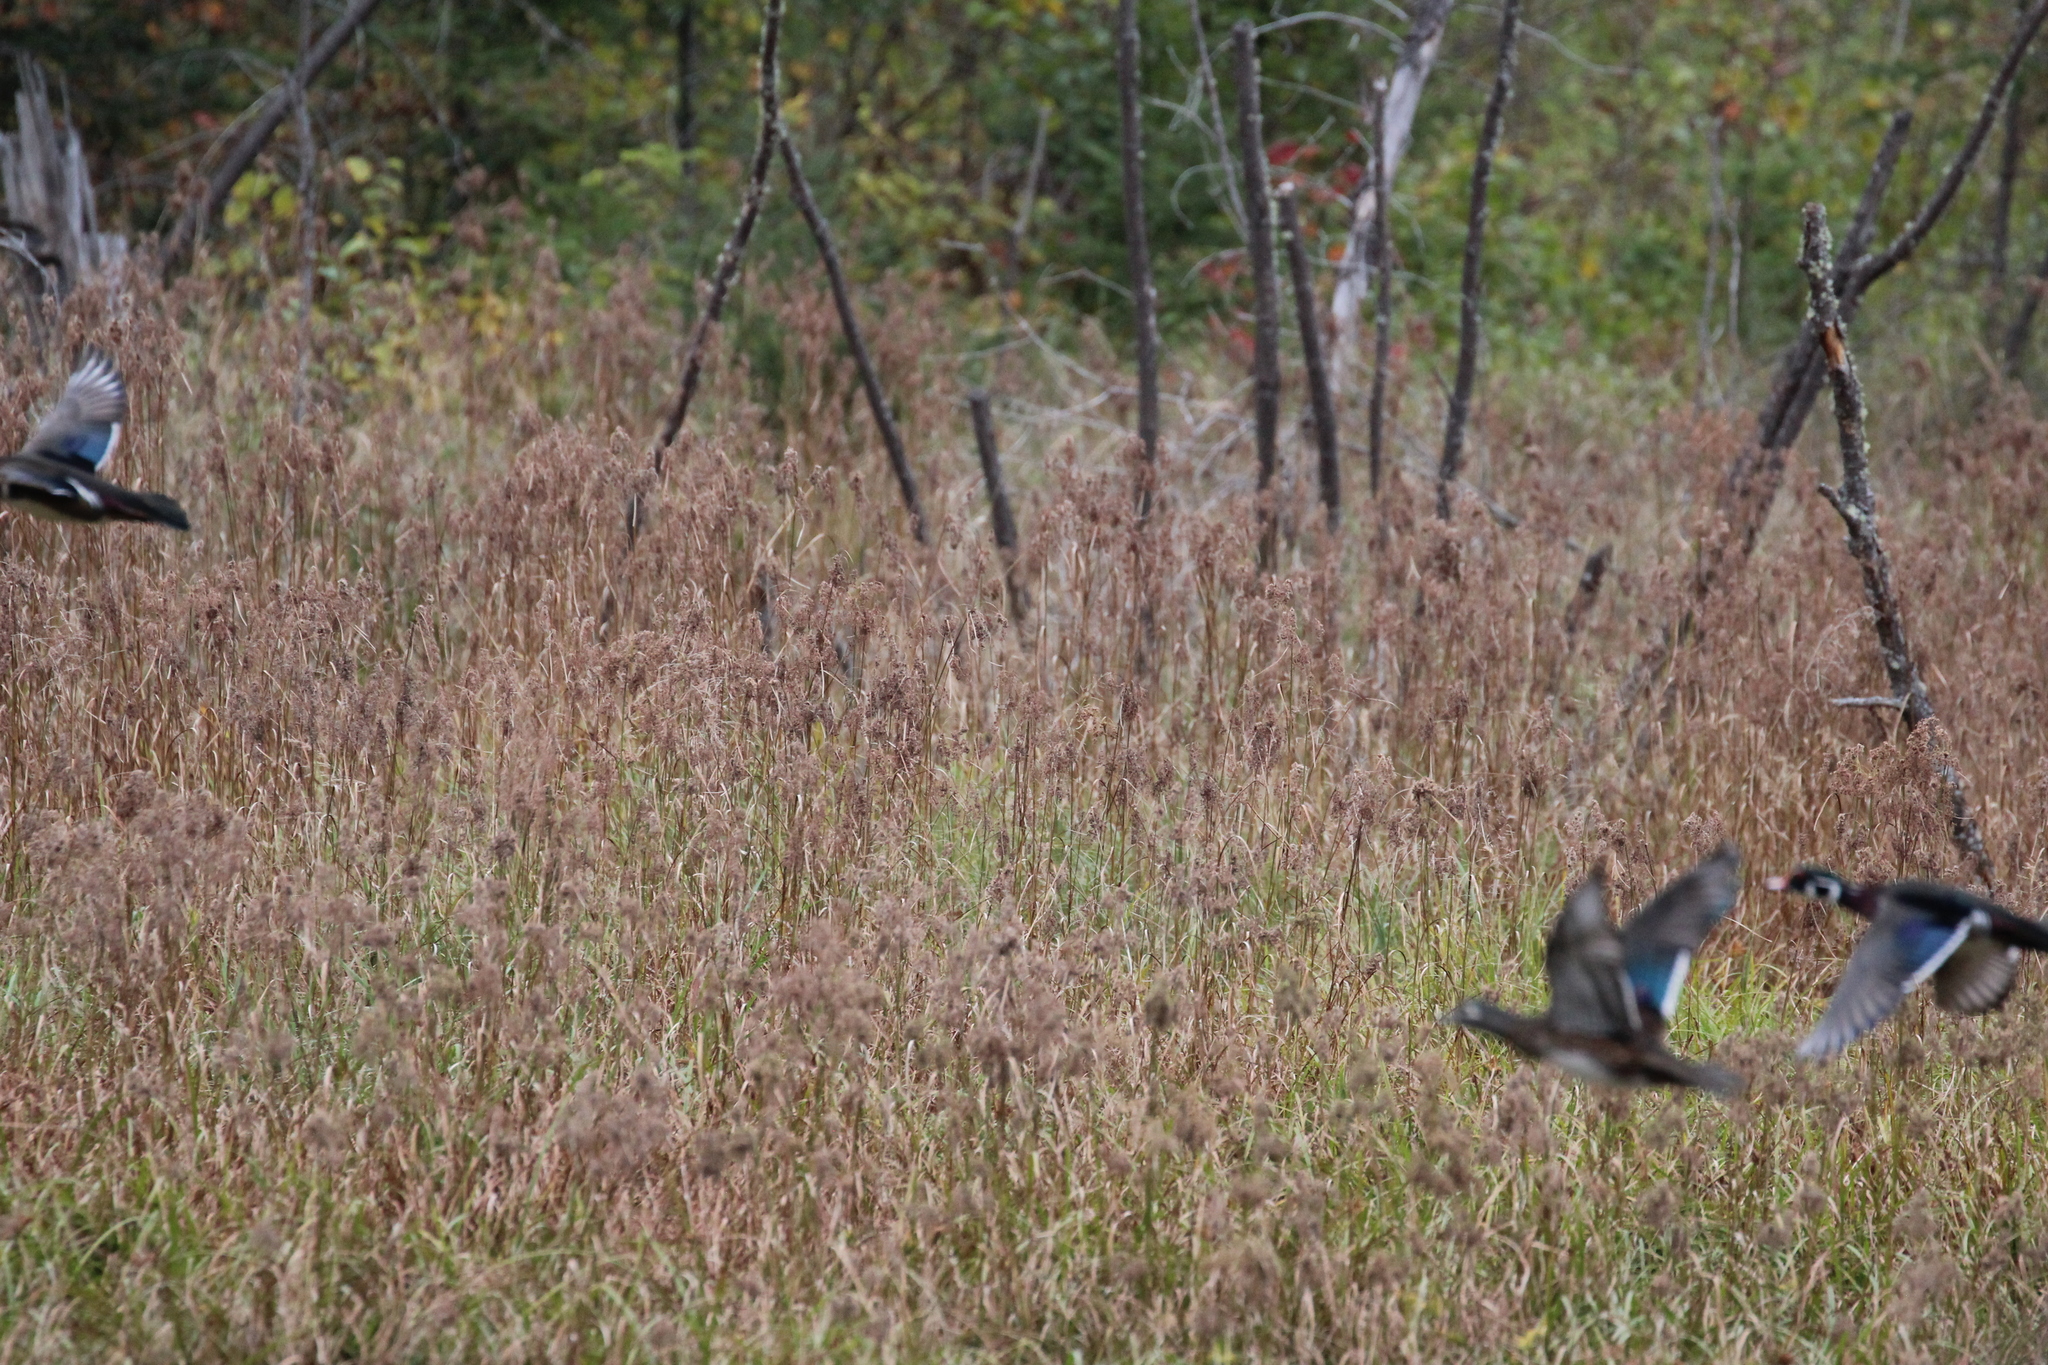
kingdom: Animalia
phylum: Chordata
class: Aves
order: Anseriformes
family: Anatidae
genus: Aix
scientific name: Aix sponsa
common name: Wood duck
